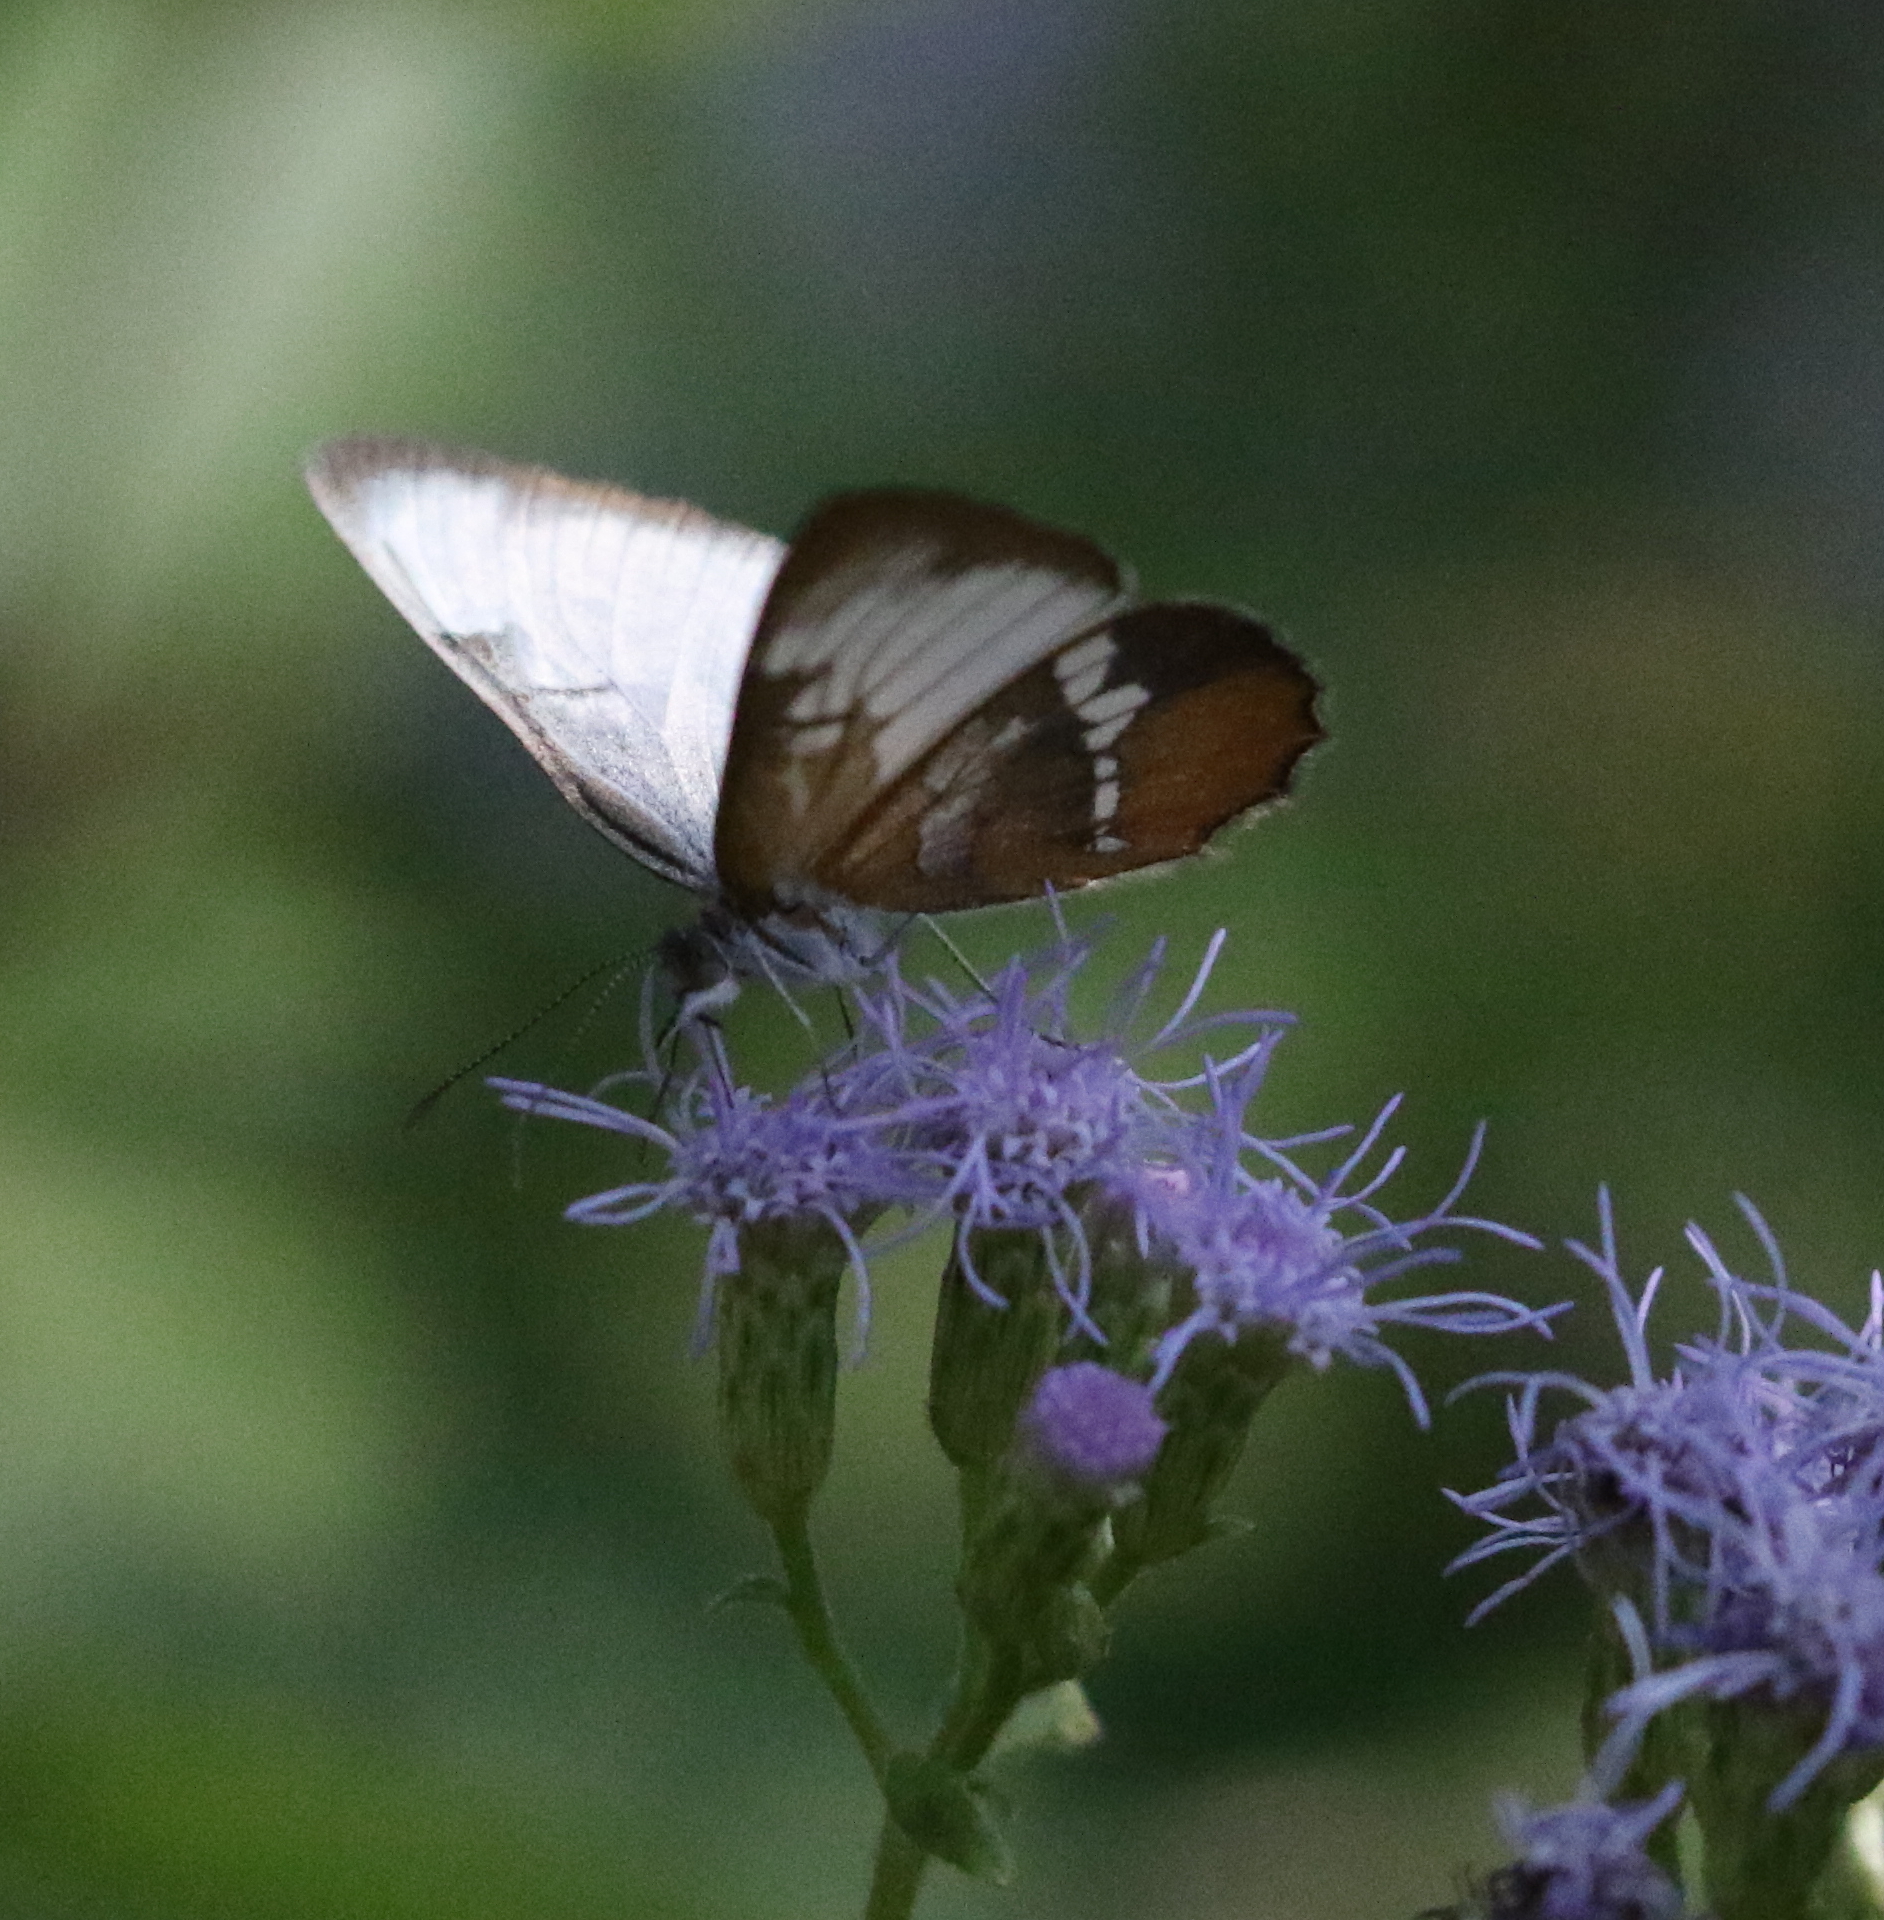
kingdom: Animalia
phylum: Arthropoda
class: Insecta
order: Lepidoptera
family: Nymphalidae
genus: Mestra
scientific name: Mestra amymone
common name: Common mestra
